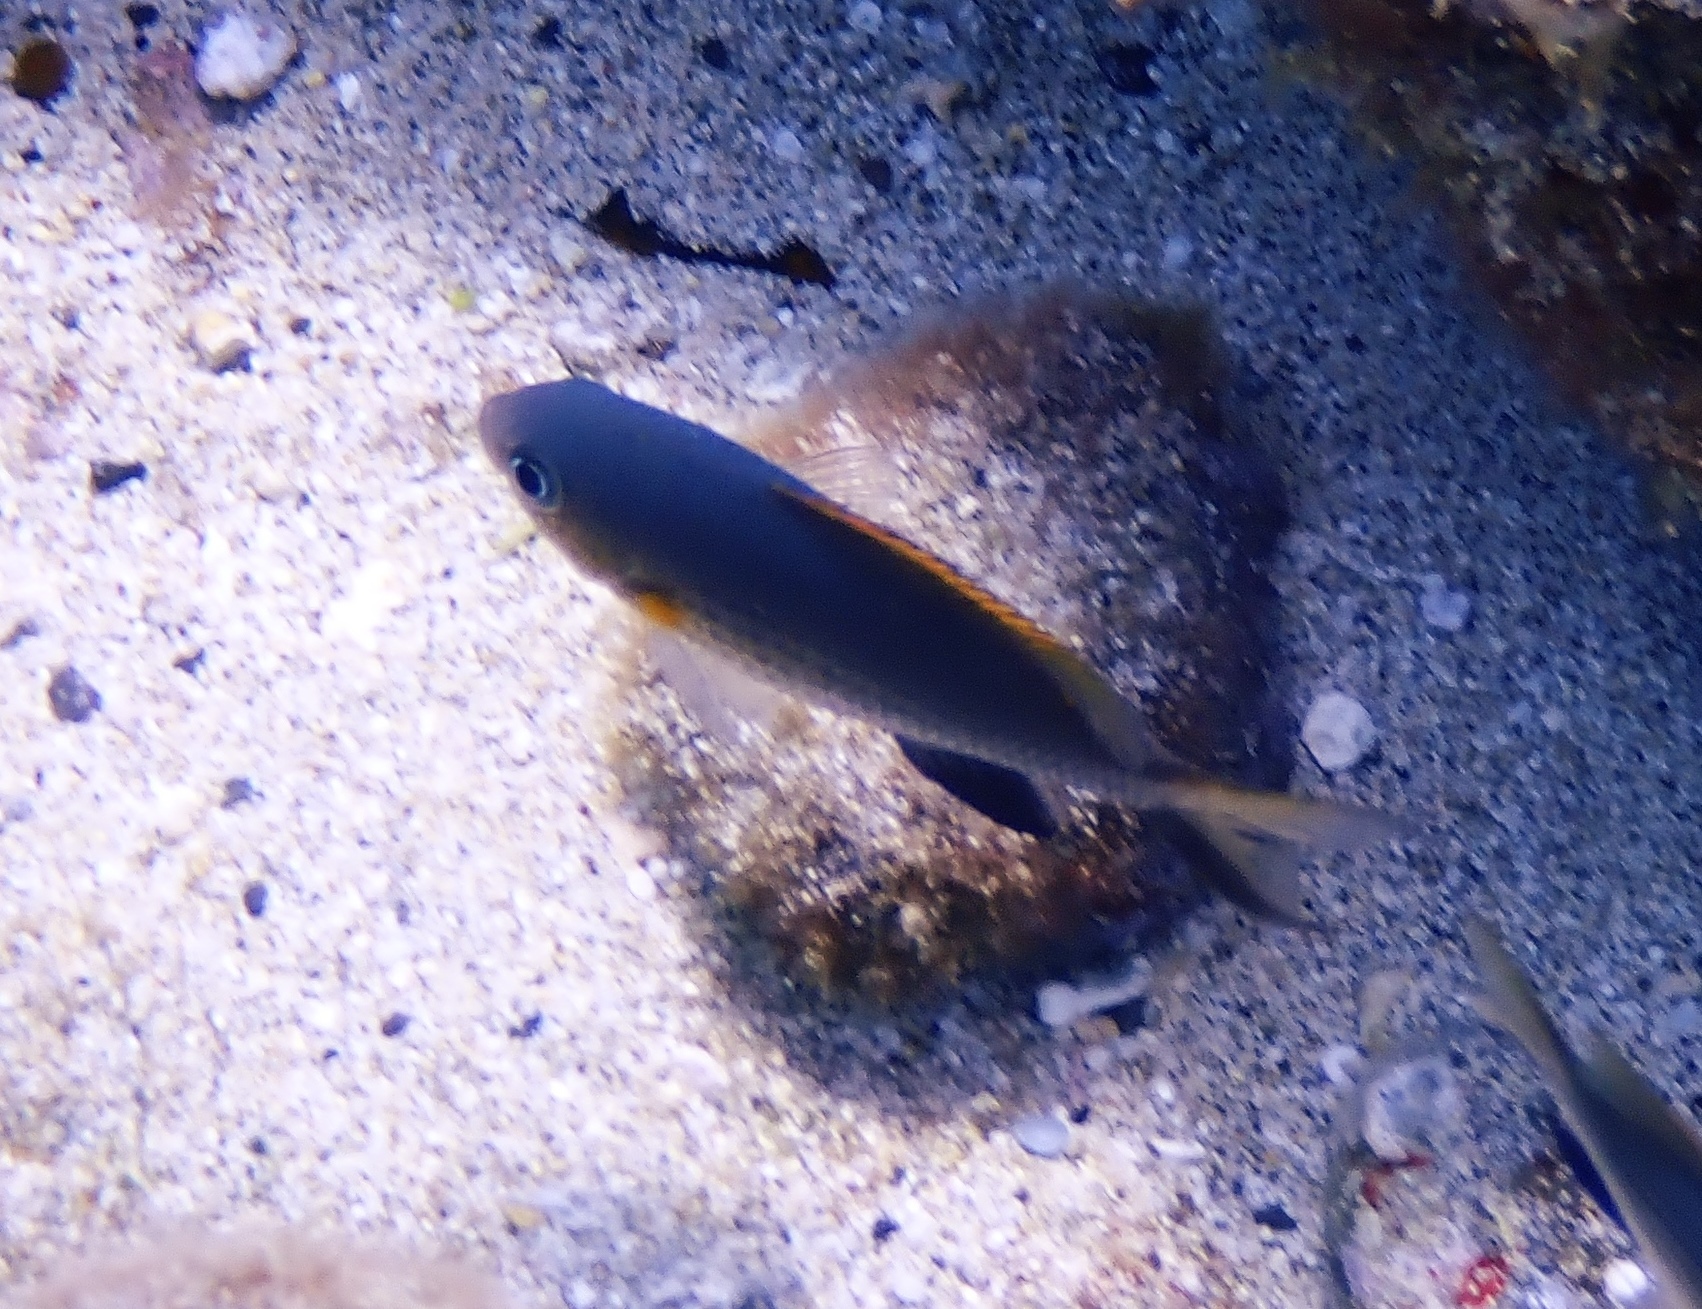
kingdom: Animalia
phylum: Chordata
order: Perciformes
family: Pomacentridae
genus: Chromis
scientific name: Chromis vanderbilti
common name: Vanderbilt's chromis
